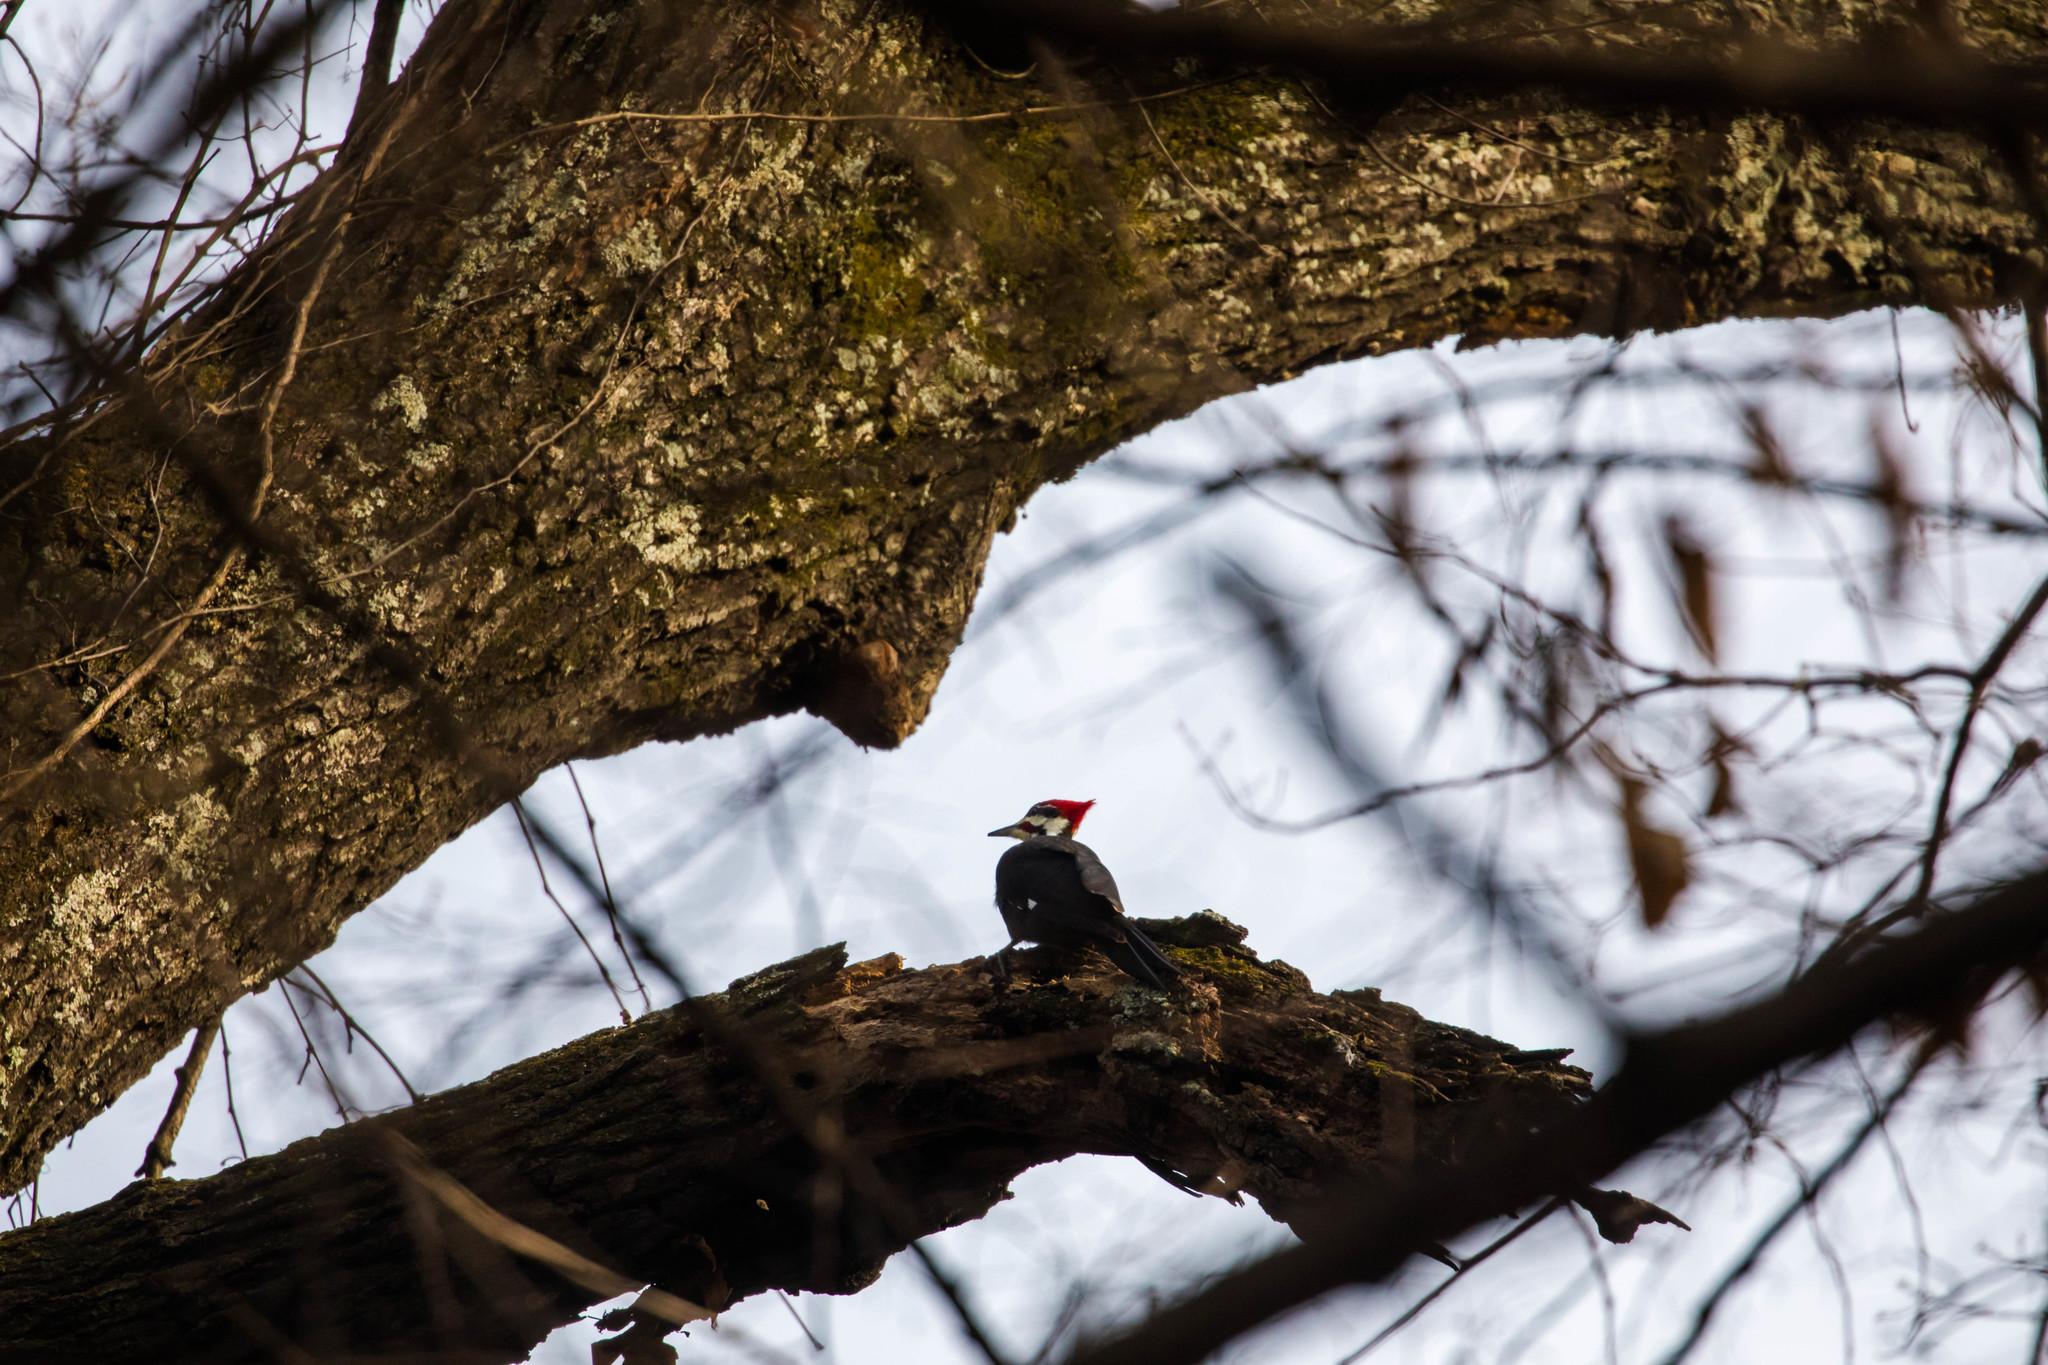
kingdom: Animalia
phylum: Chordata
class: Aves
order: Piciformes
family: Picidae
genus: Dryocopus
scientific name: Dryocopus pileatus
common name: Pileated woodpecker
